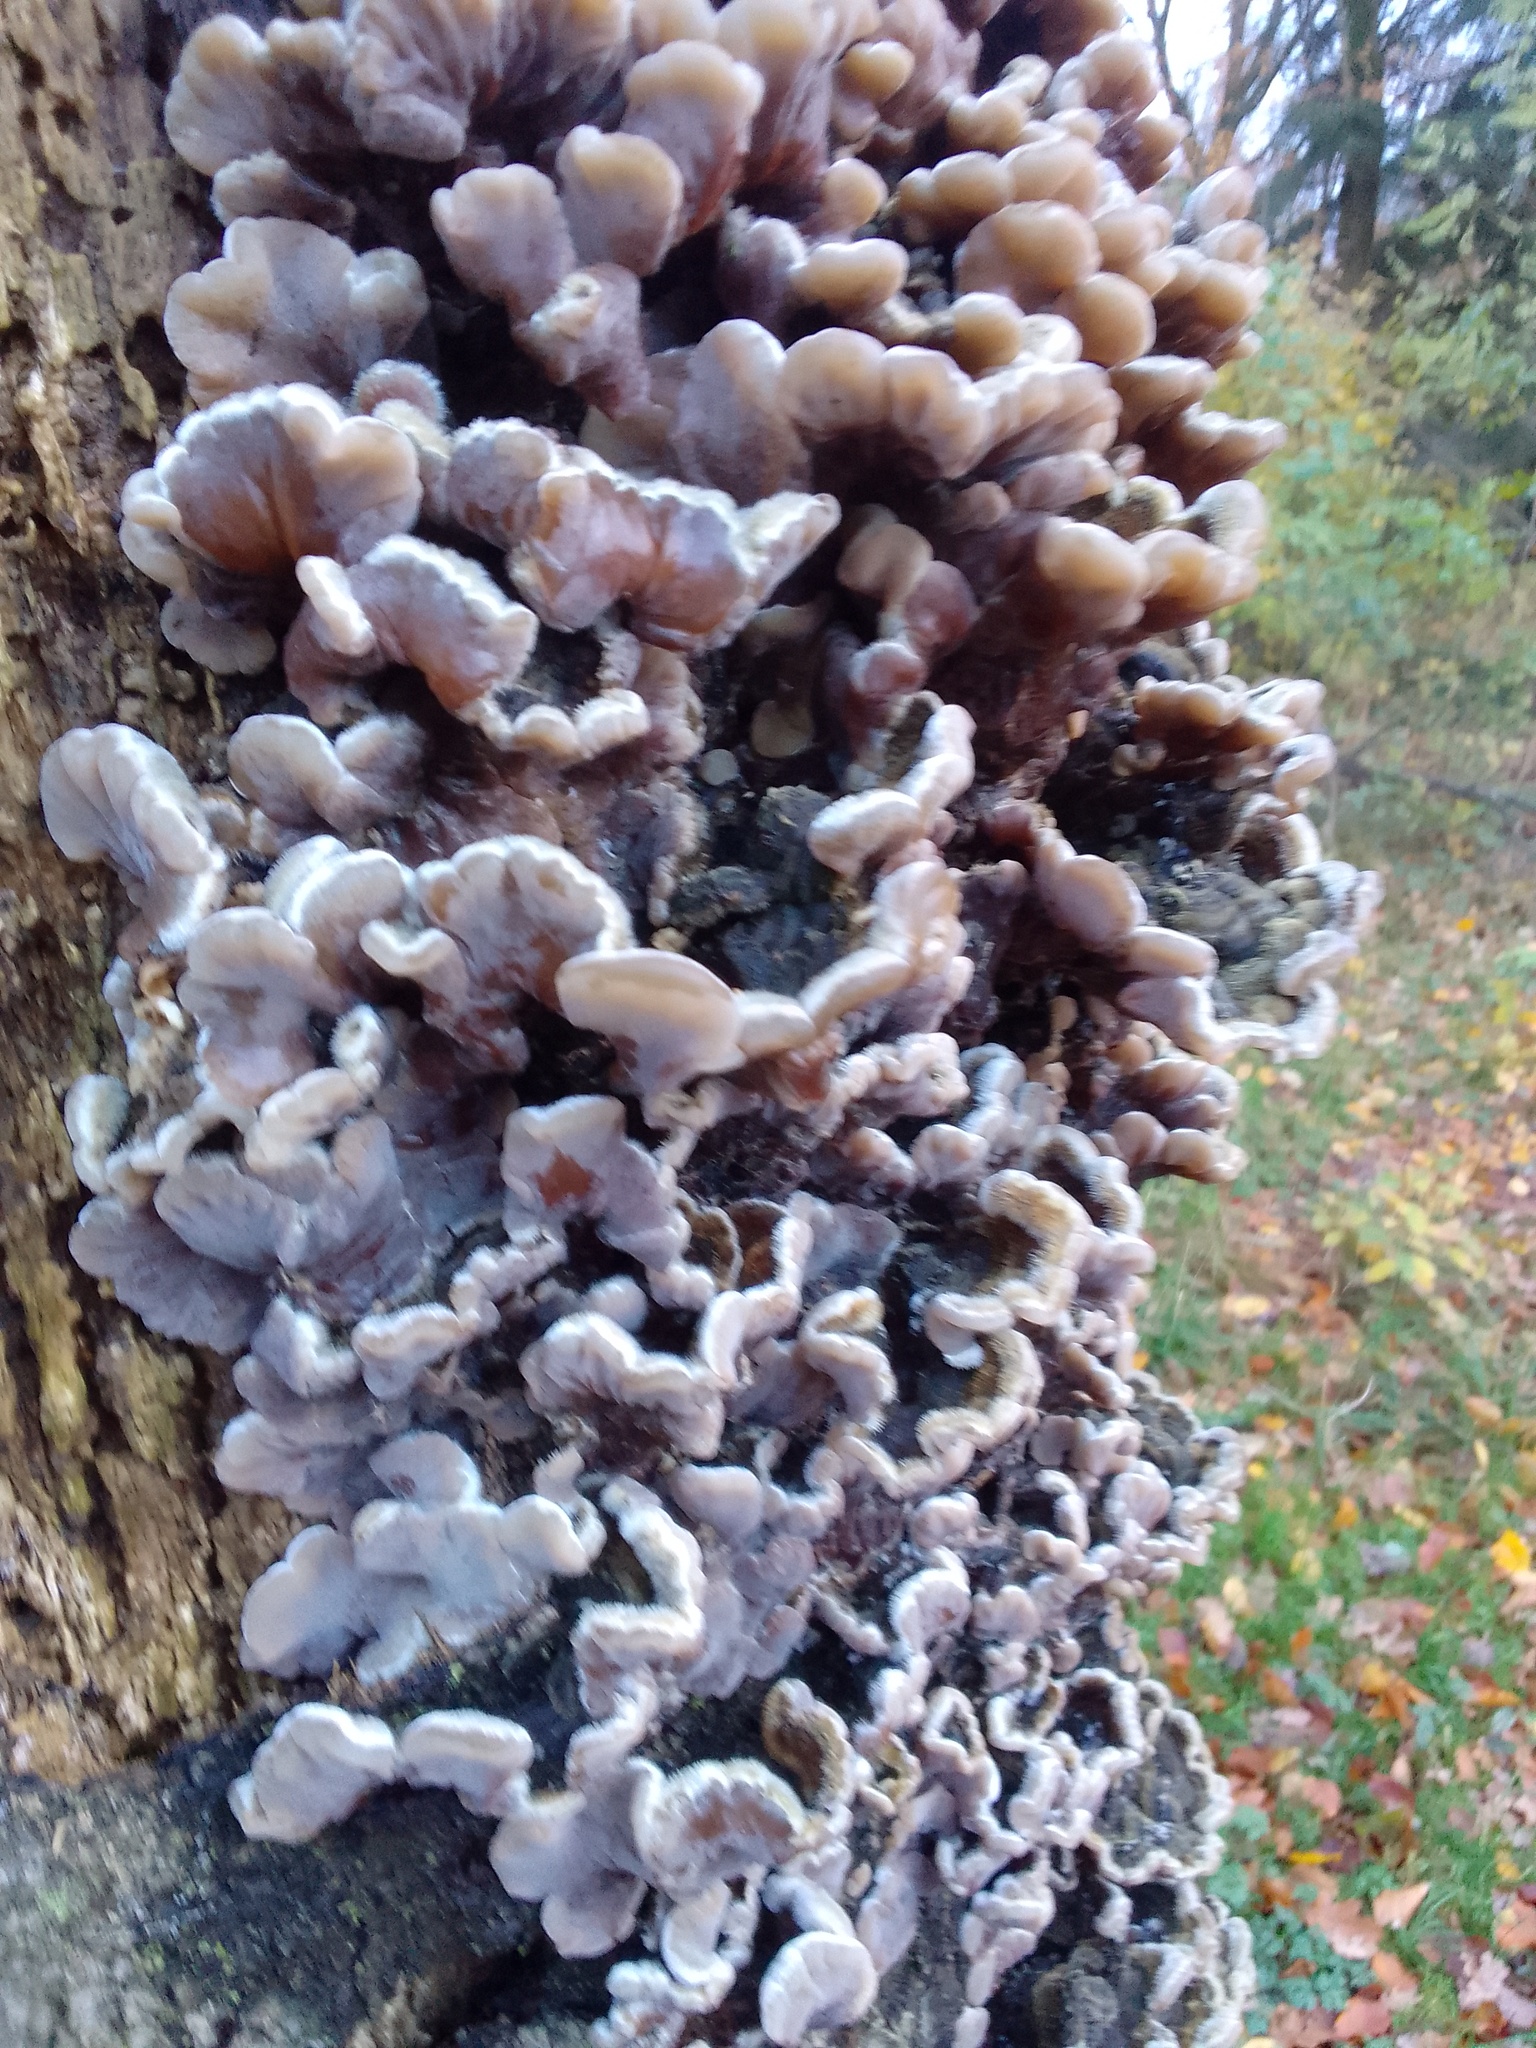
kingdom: Fungi
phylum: Basidiomycota
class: Agaricomycetes
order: Auriculariales
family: Auriculariaceae
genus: Auricularia
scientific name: Auricularia mesenterica
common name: Tripe fungus
